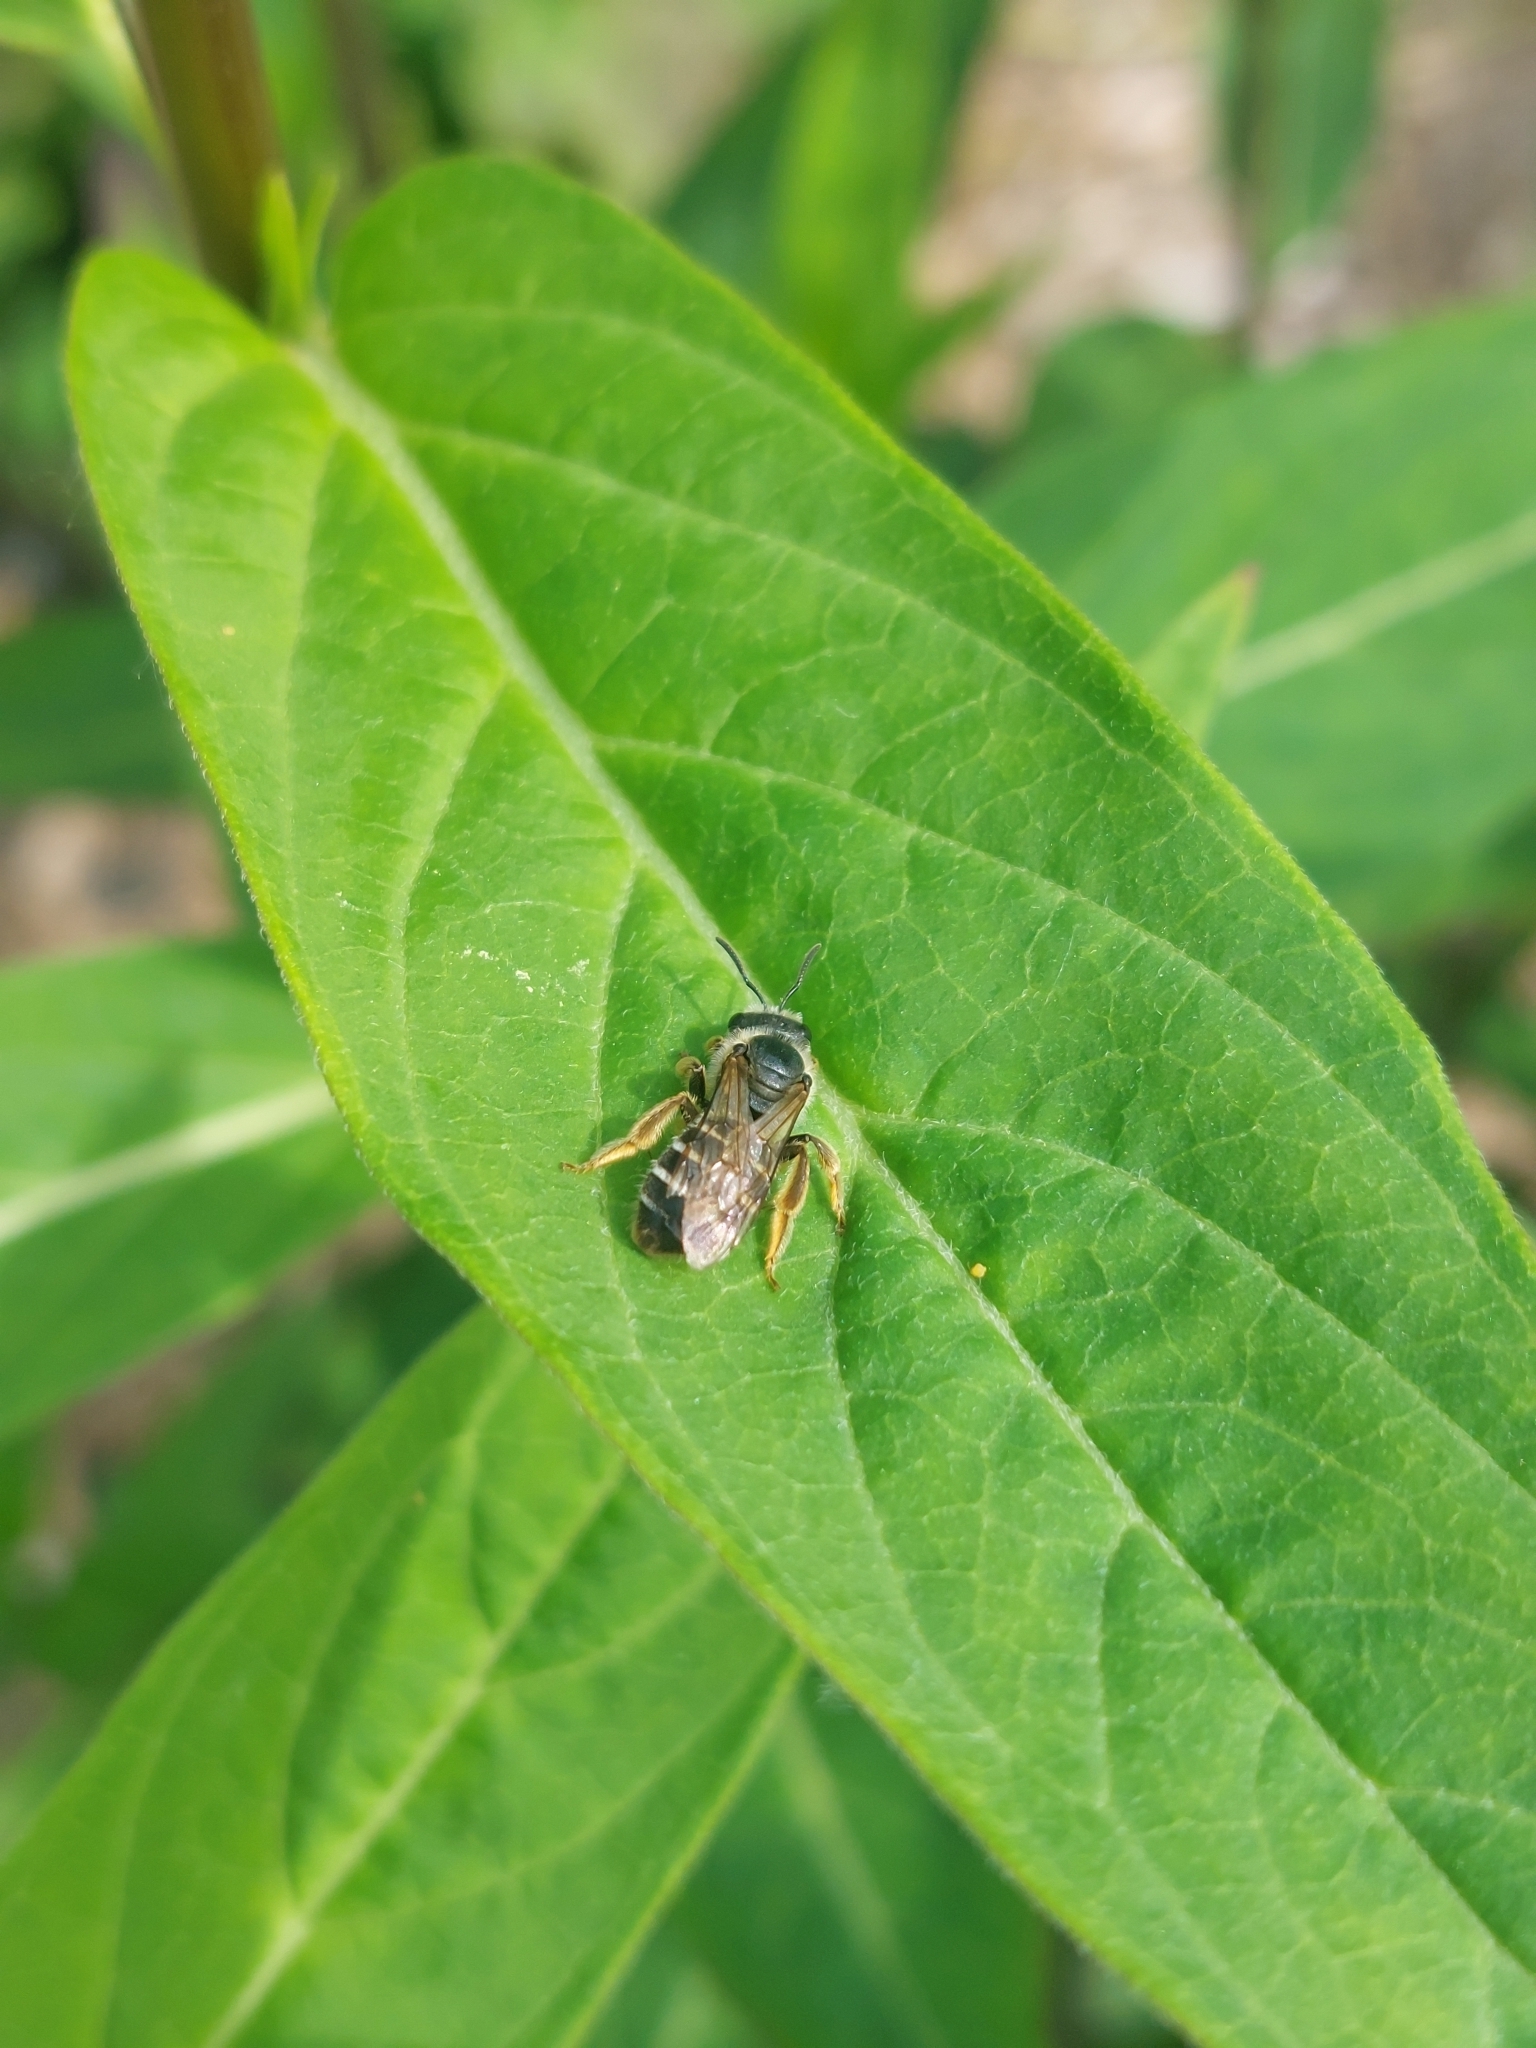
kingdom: Animalia
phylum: Arthropoda
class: Insecta
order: Hymenoptera
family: Halictidae
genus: Halictus
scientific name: Halictus rubicundus
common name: Orange-legged furrow bee
